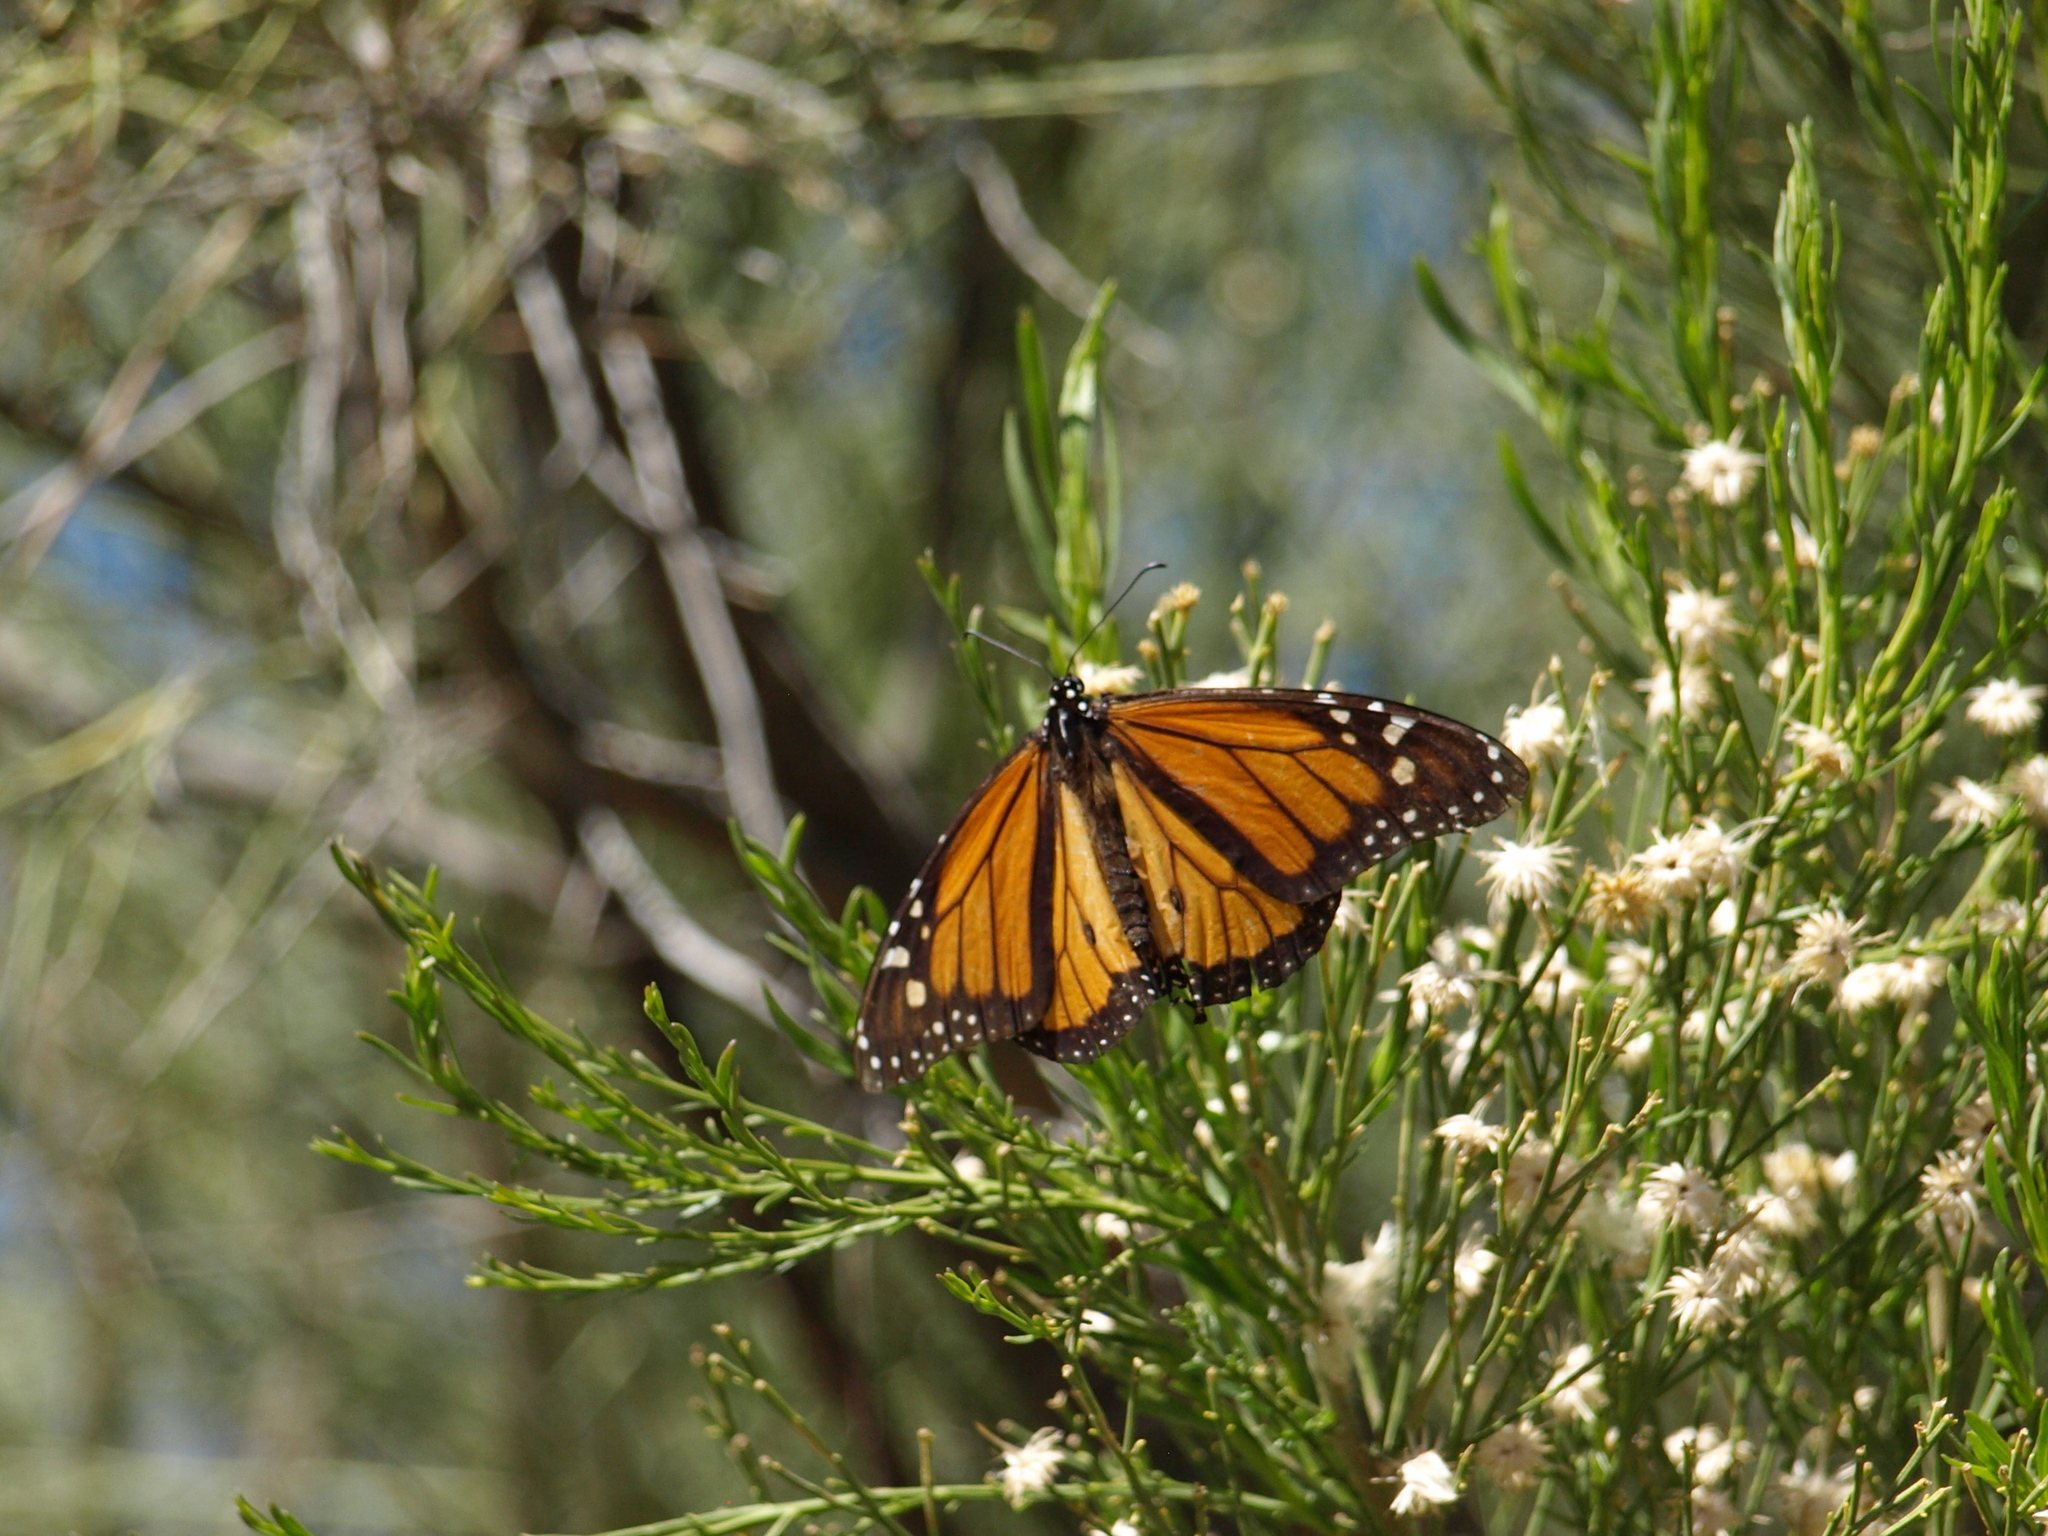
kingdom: Animalia
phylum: Arthropoda
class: Insecta
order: Lepidoptera
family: Nymphalidae
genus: Danaus
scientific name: Danaus plexippus
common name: Monarch
